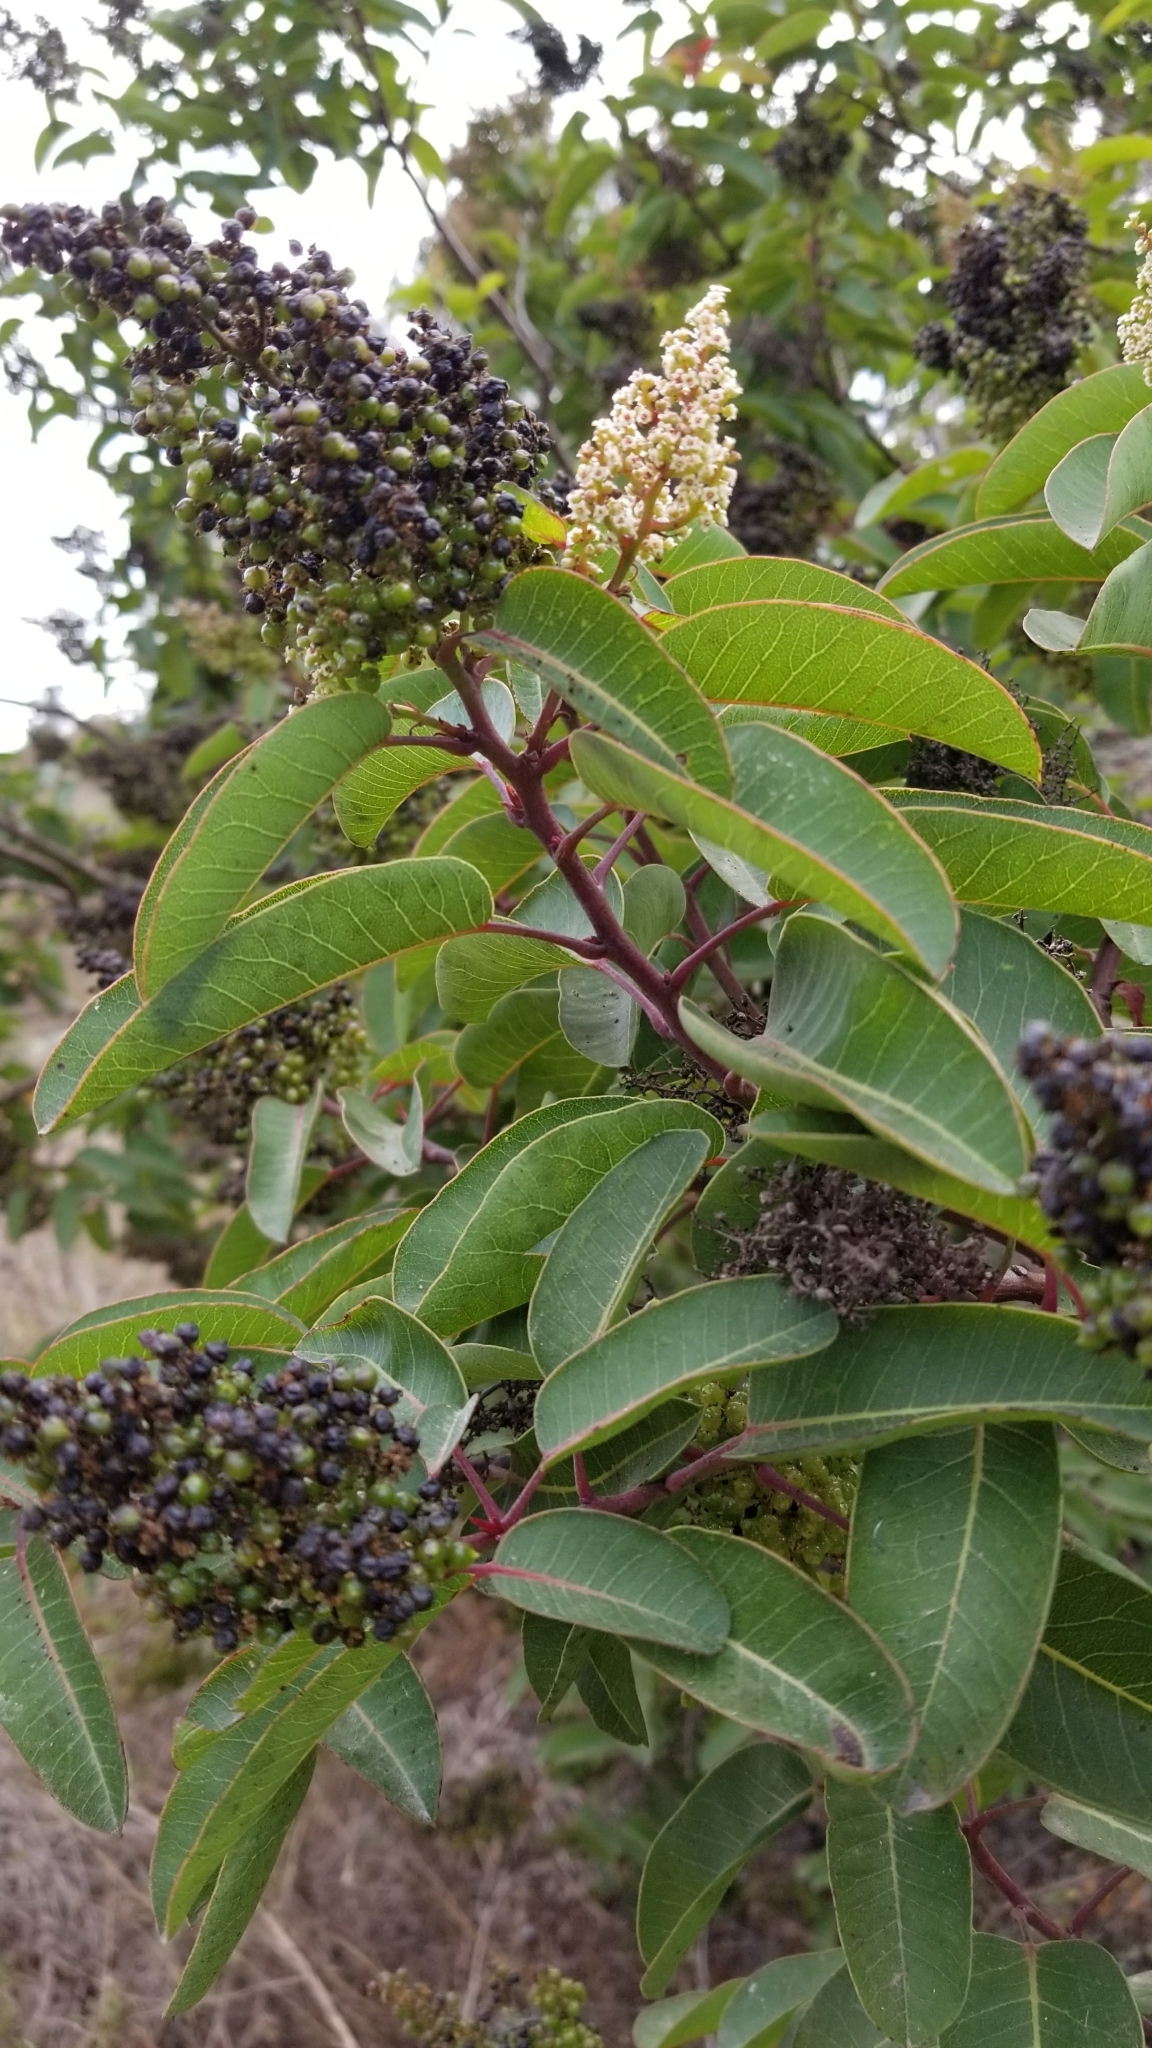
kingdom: Plantae
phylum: Tracheophyta
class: Magnoliopsida
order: Sapindales
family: Anacardiaceae
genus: Malosma
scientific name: Malosma laurina
